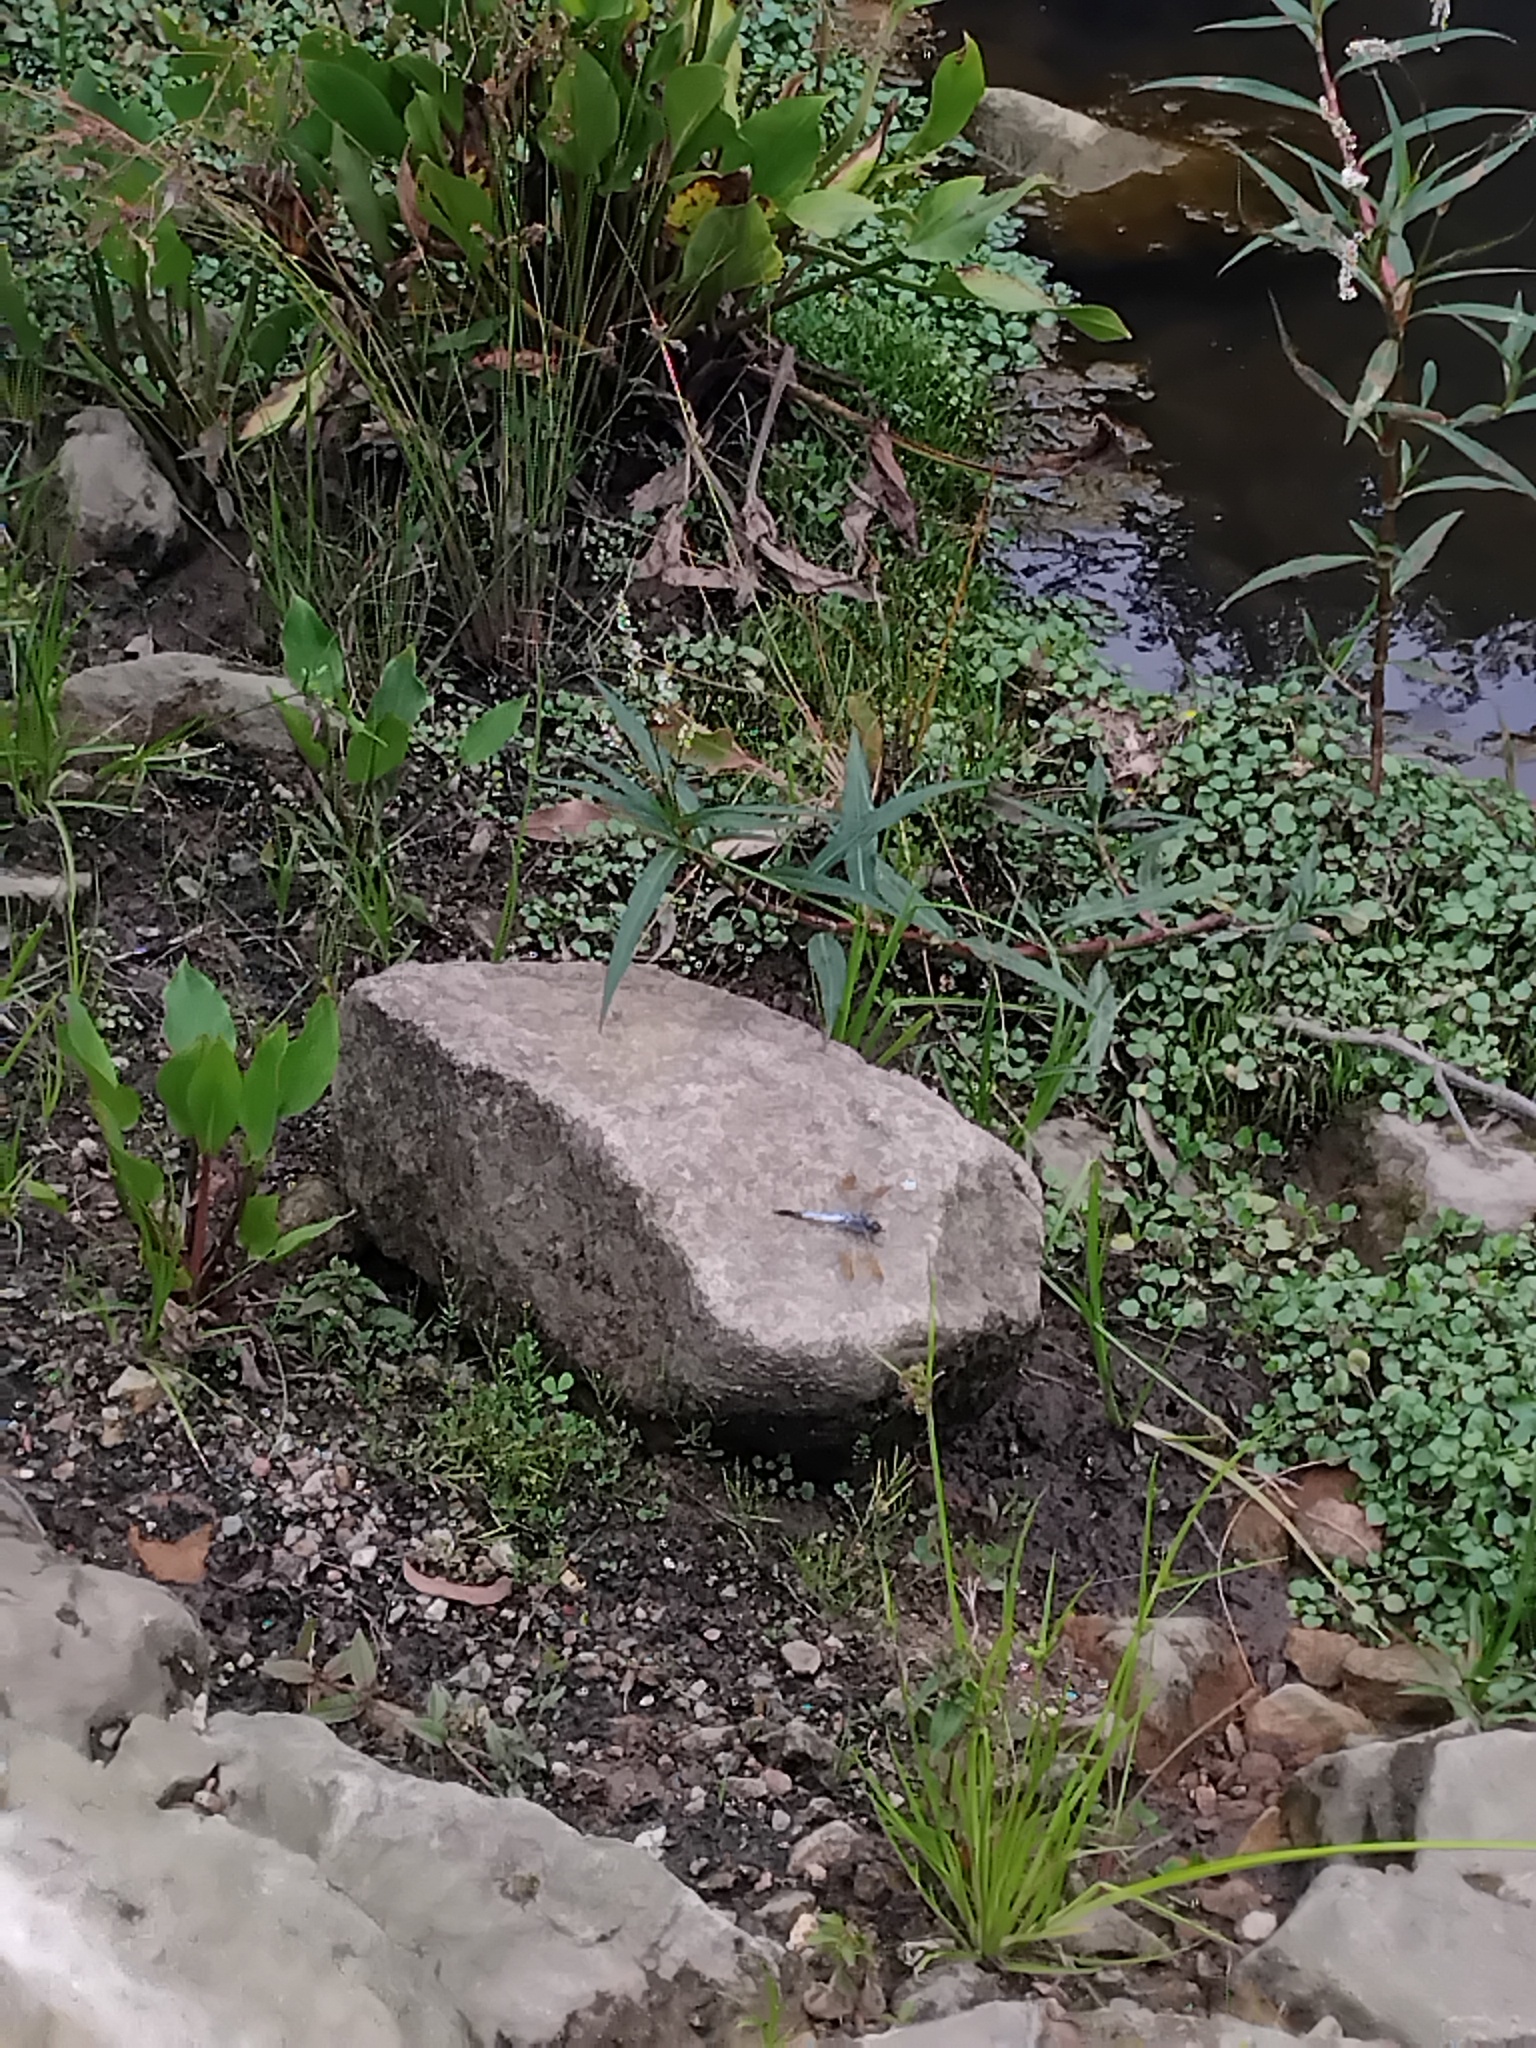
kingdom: Animalia
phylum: Arthropoda
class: Insecta
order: Odonata
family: Libellulidae
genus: Orthetrum
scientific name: Orthetrum caledonicum
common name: Blue skimmer
